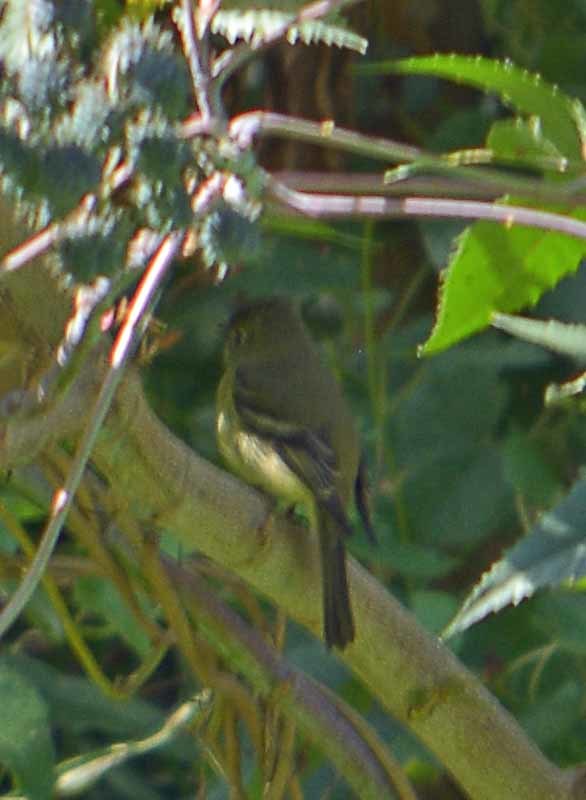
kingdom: Animalia
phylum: Chordata
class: Aves
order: Passeriformes
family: Tyrannidae
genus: Empidonax
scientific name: Empidonax difficilis
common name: Pacific-slope flycatcher
